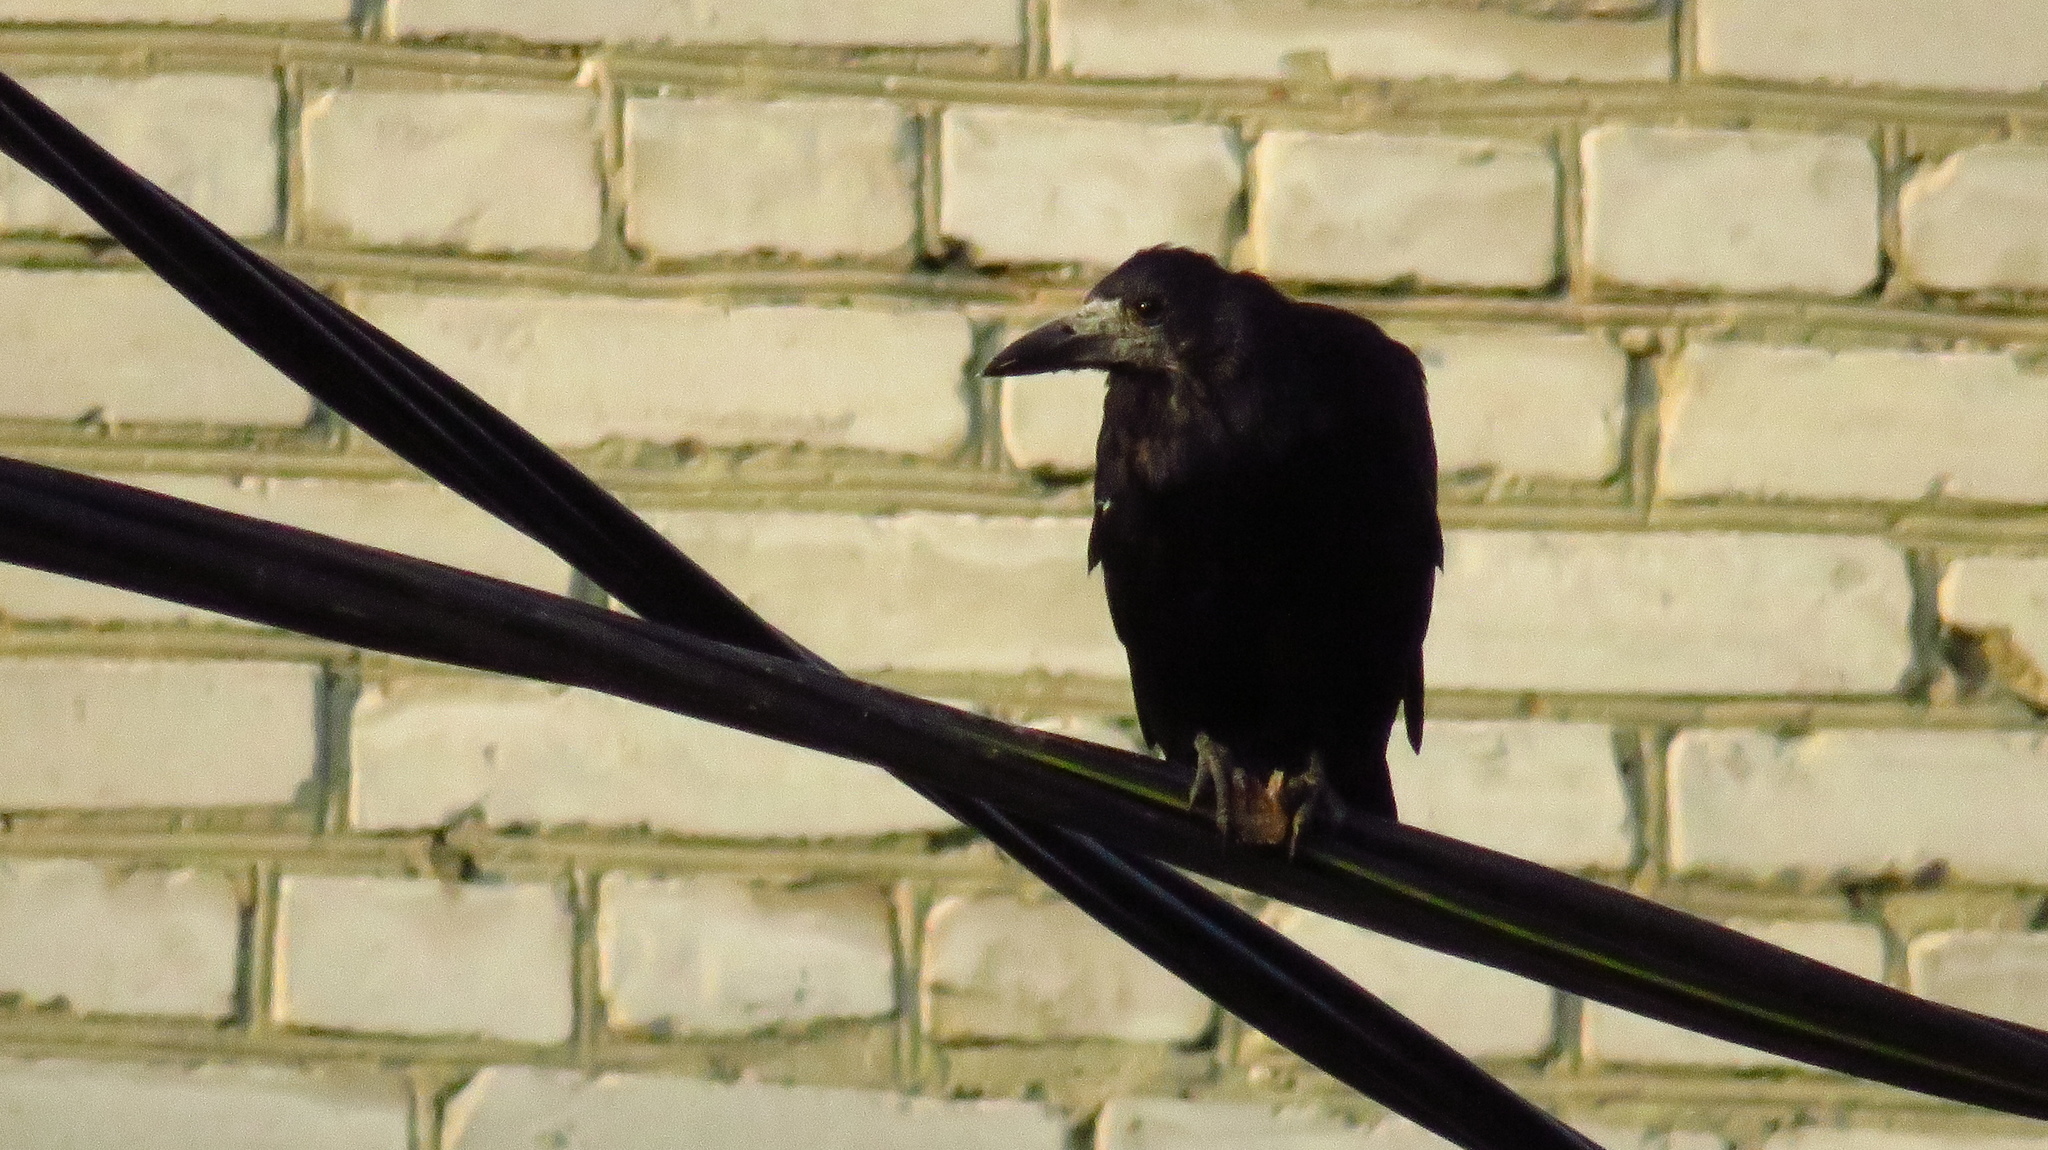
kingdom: Animalia
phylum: Chordata
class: Aves
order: Passeriformes
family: Corvidae
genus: Corvus
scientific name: Corvus frugilegus
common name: Rook
